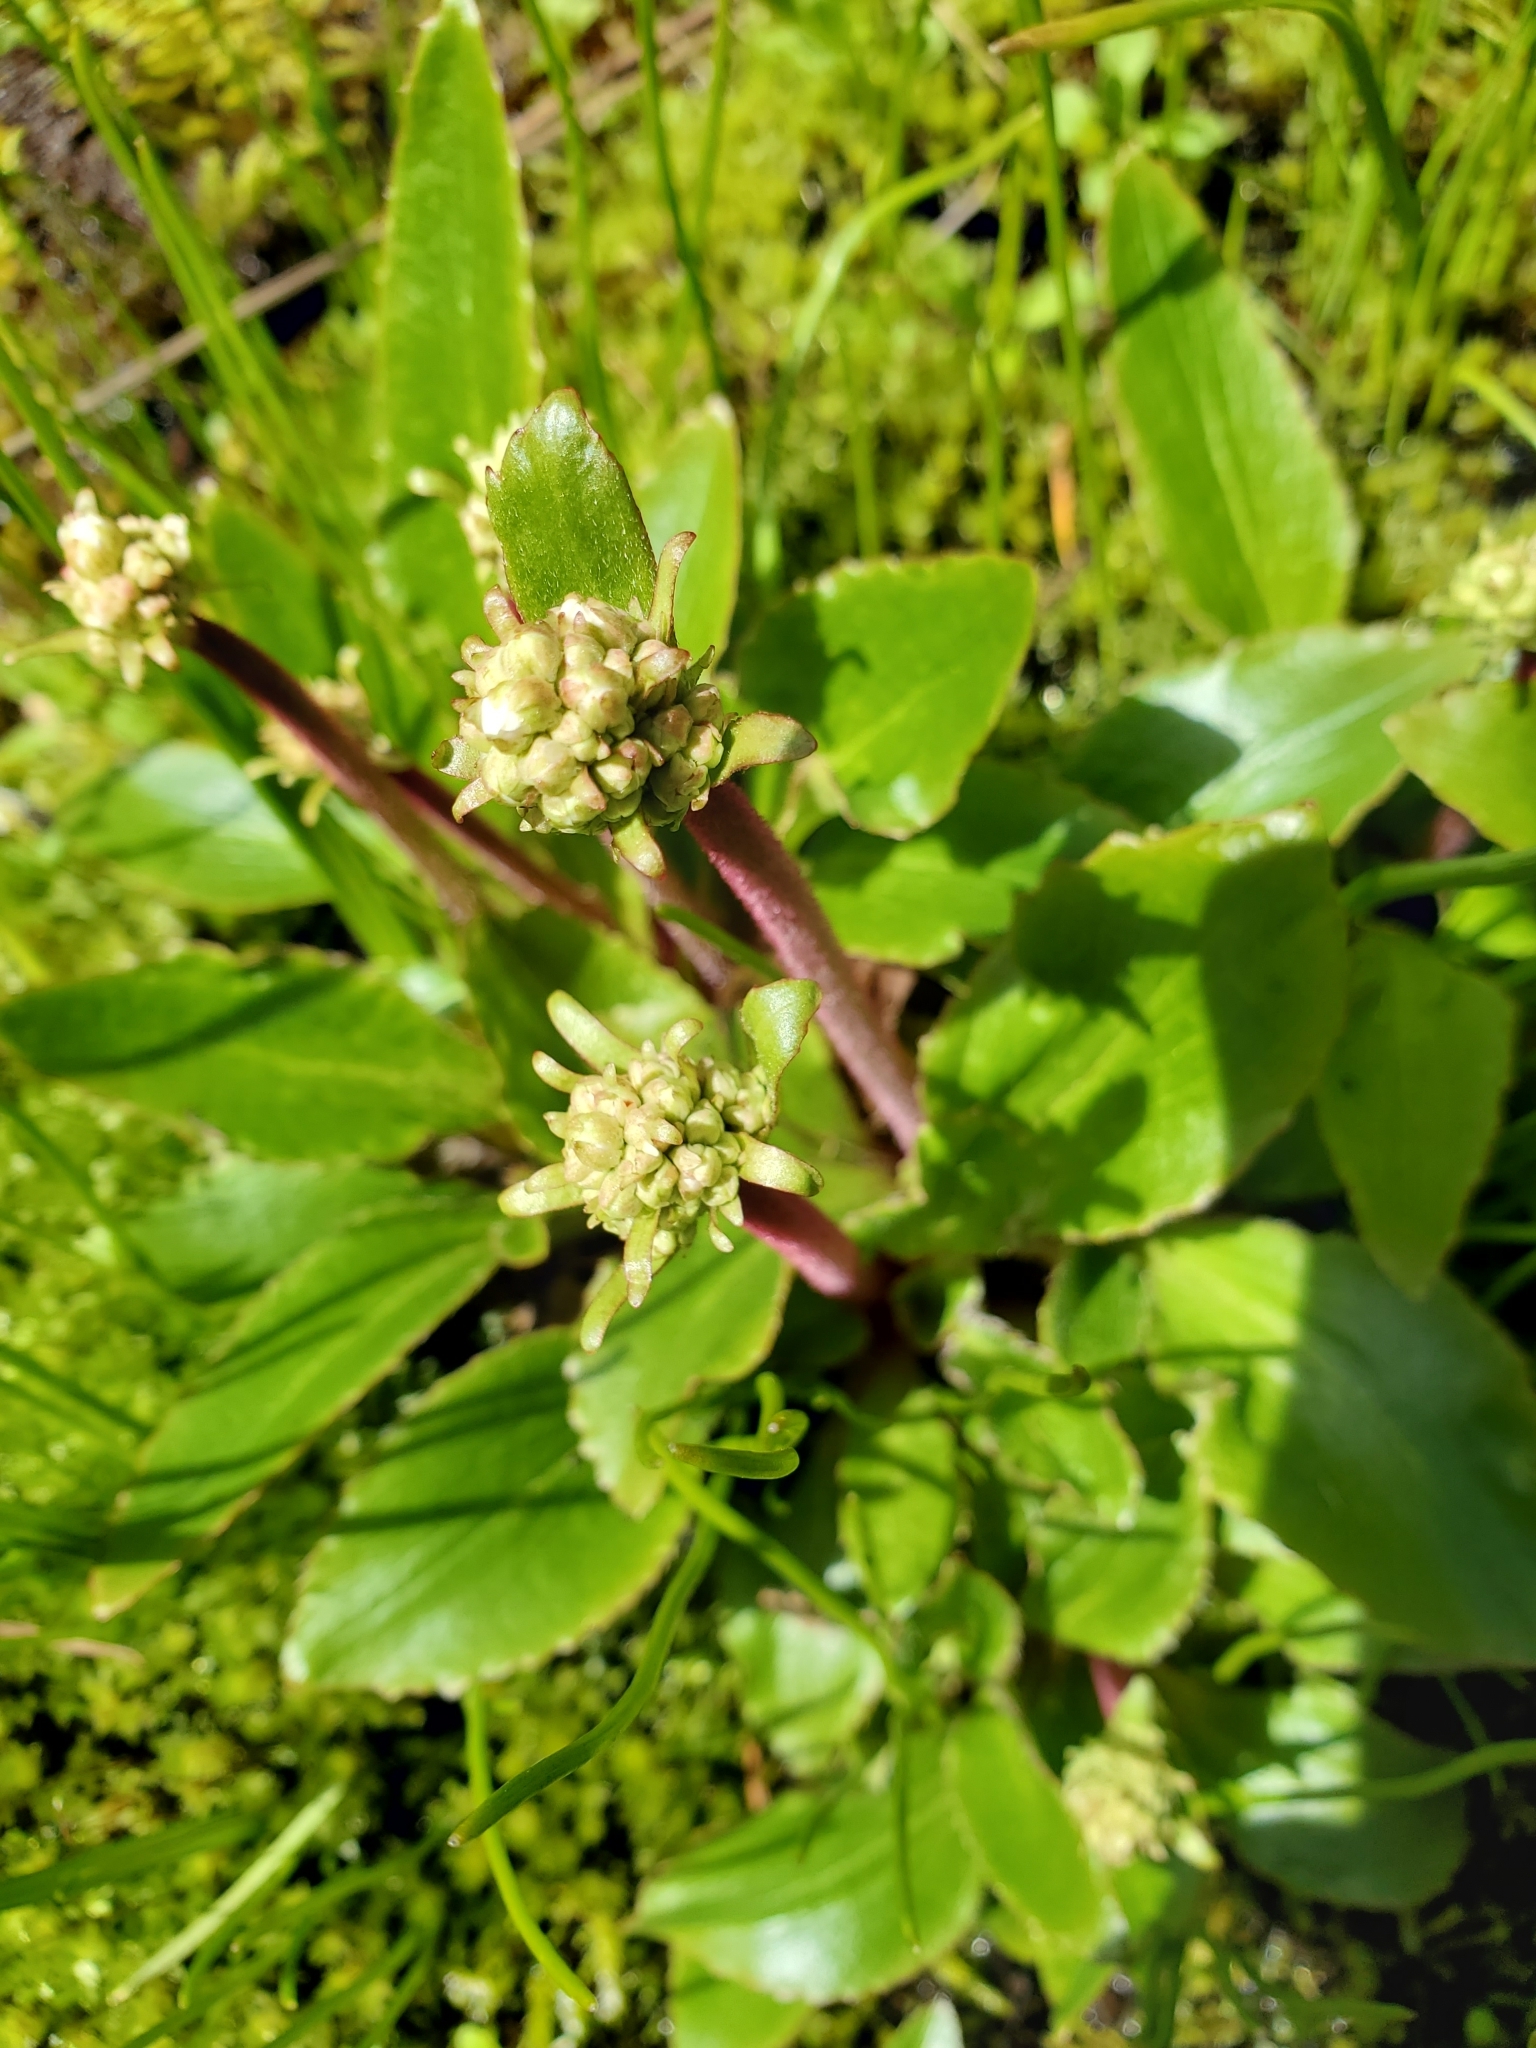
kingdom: Plantae
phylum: Tracheophyta
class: Magnoliopsida
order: Saxifragales
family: Saxifragaceae
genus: Micranthes
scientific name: Micranthes integrifolia
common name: Wholeleaf saxifrage
